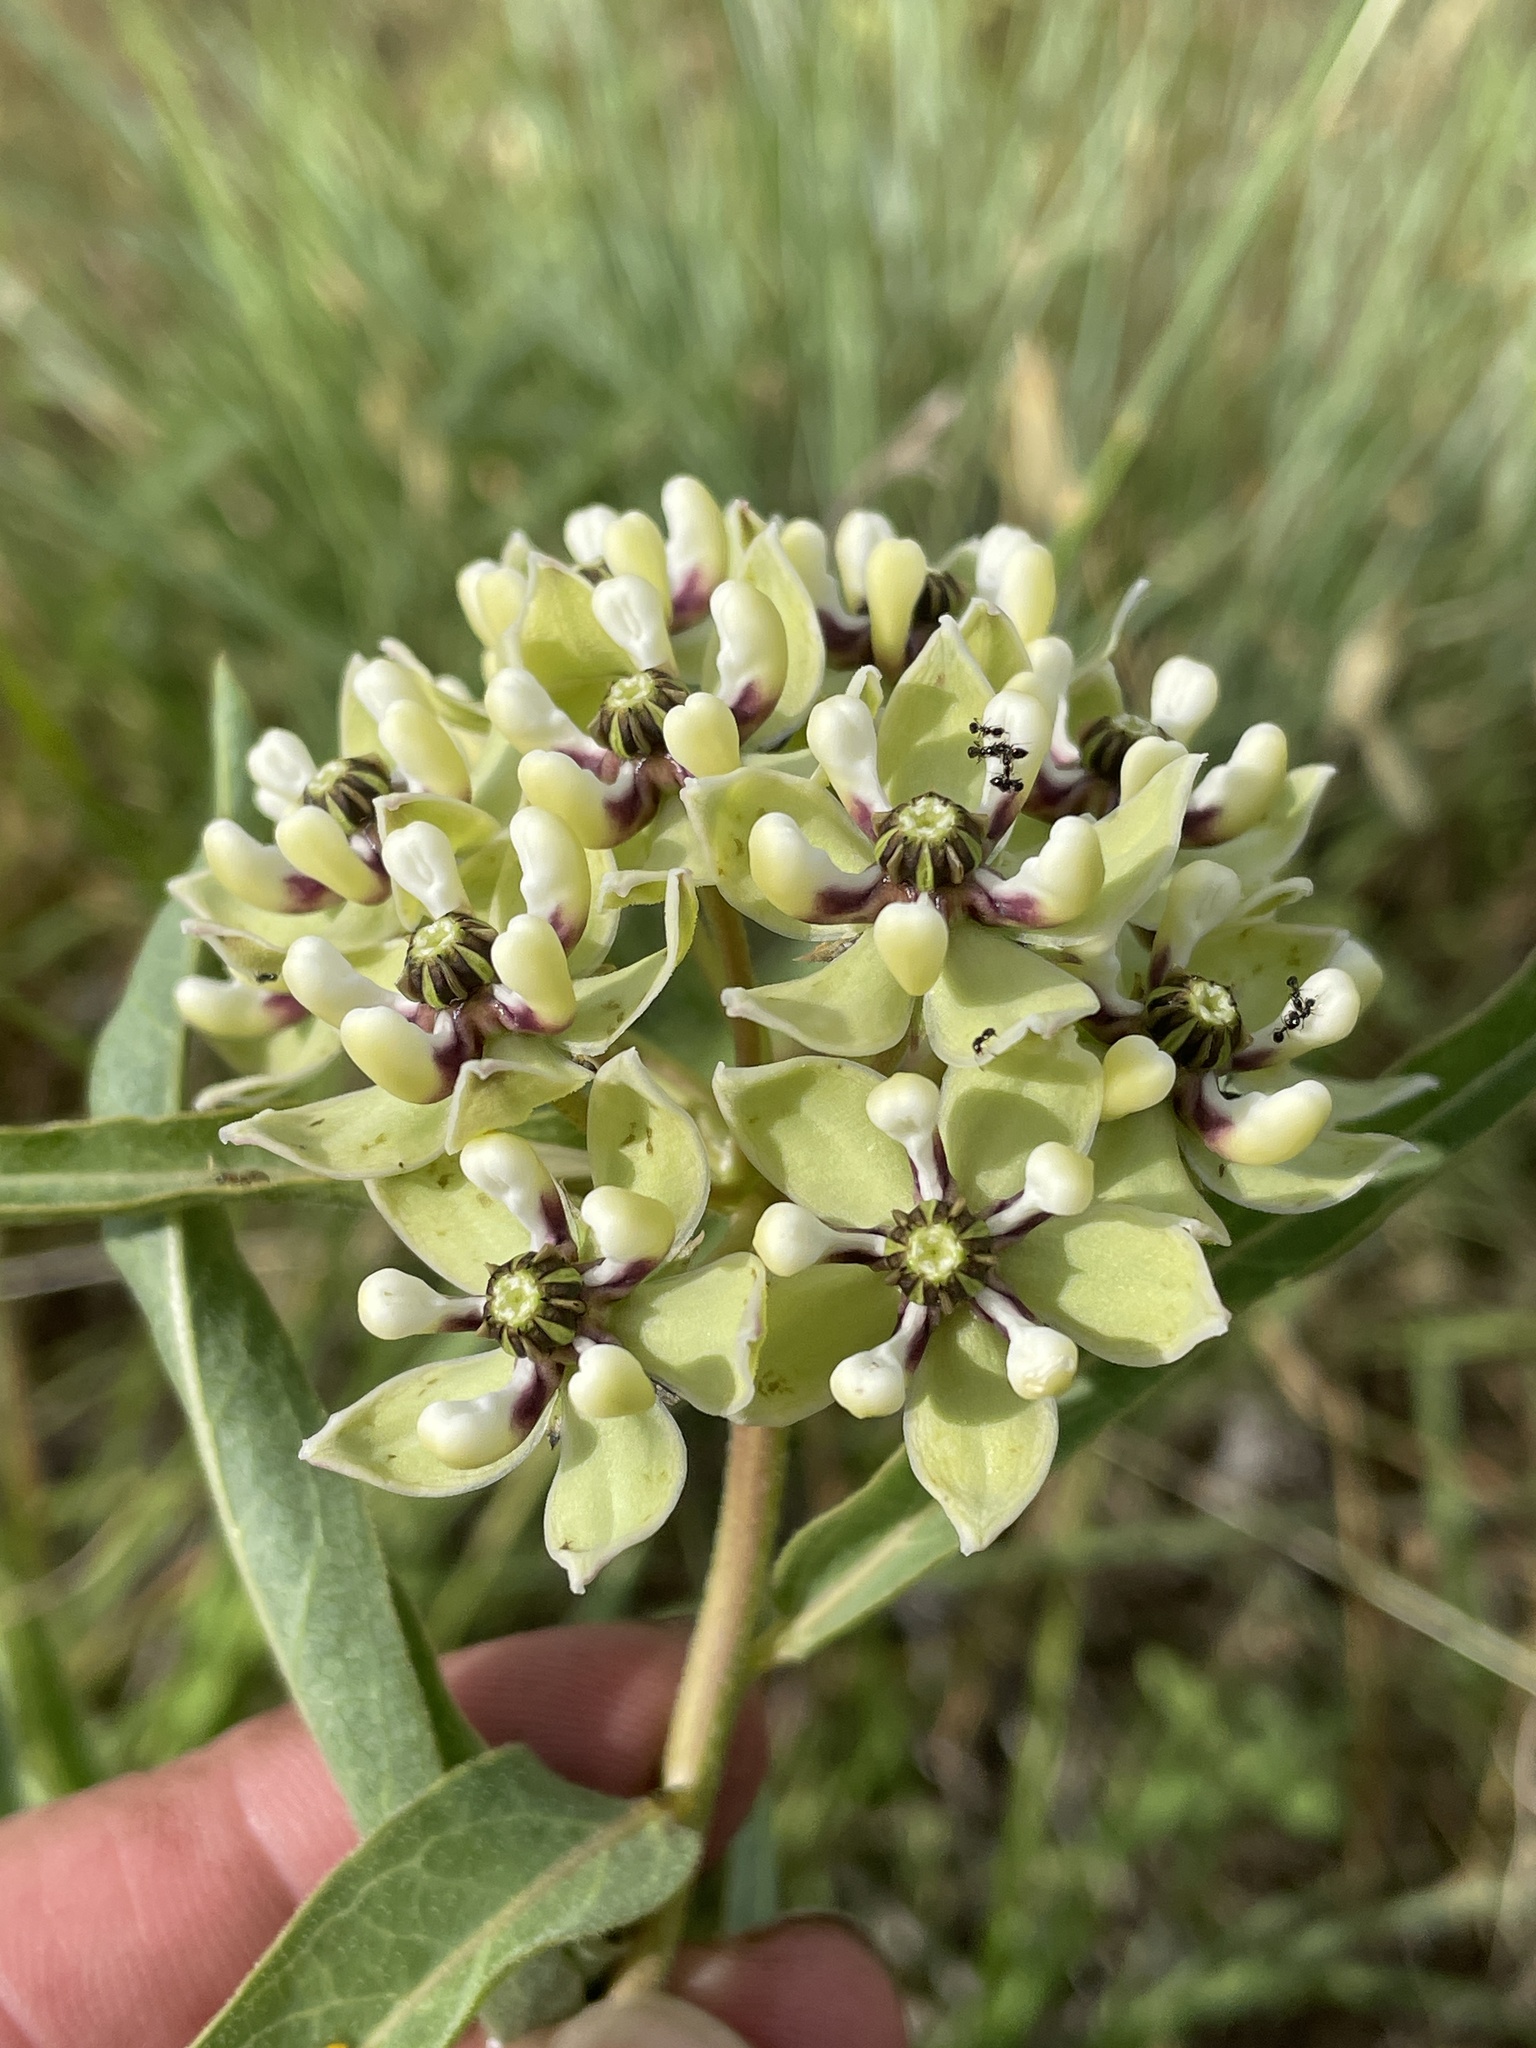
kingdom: Plantae
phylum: Tracheophyta
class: Magnoliopsida
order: Gentianales
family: Apocynaceae
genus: Asclepias
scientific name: Asclepias asperula
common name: Antelope horns
